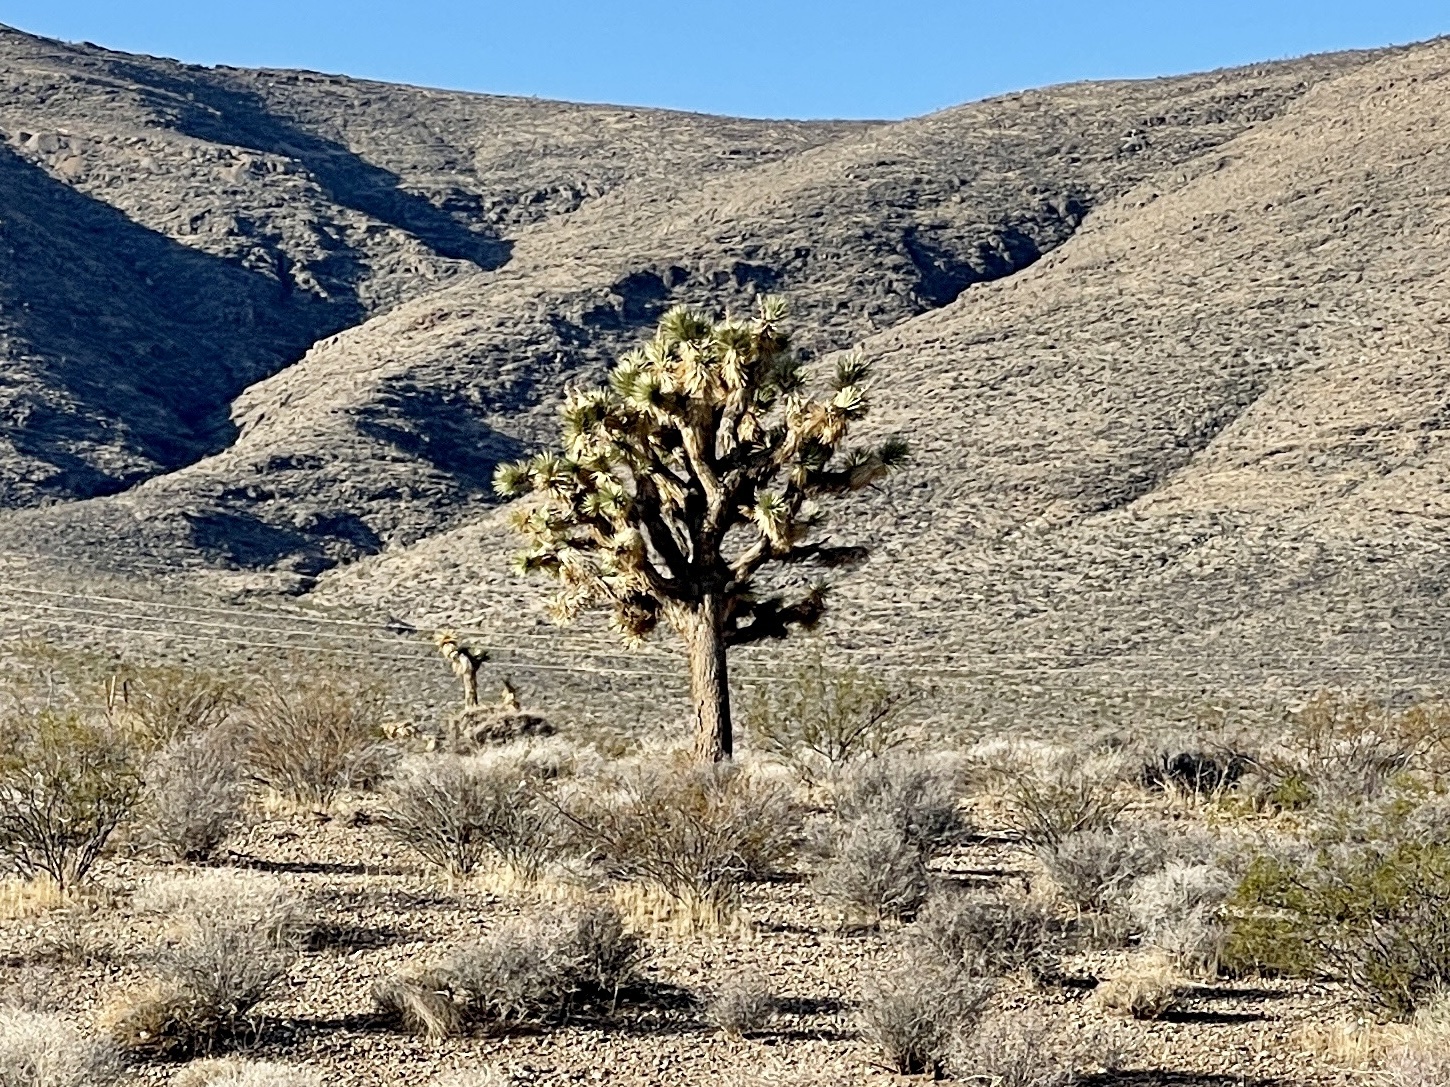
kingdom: Plantae
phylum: Tracheophyta
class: Liliopsida
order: Asparagales
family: Asparagaceae
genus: Yucca
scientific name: Yucca brevifolia
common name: Joshua tree
